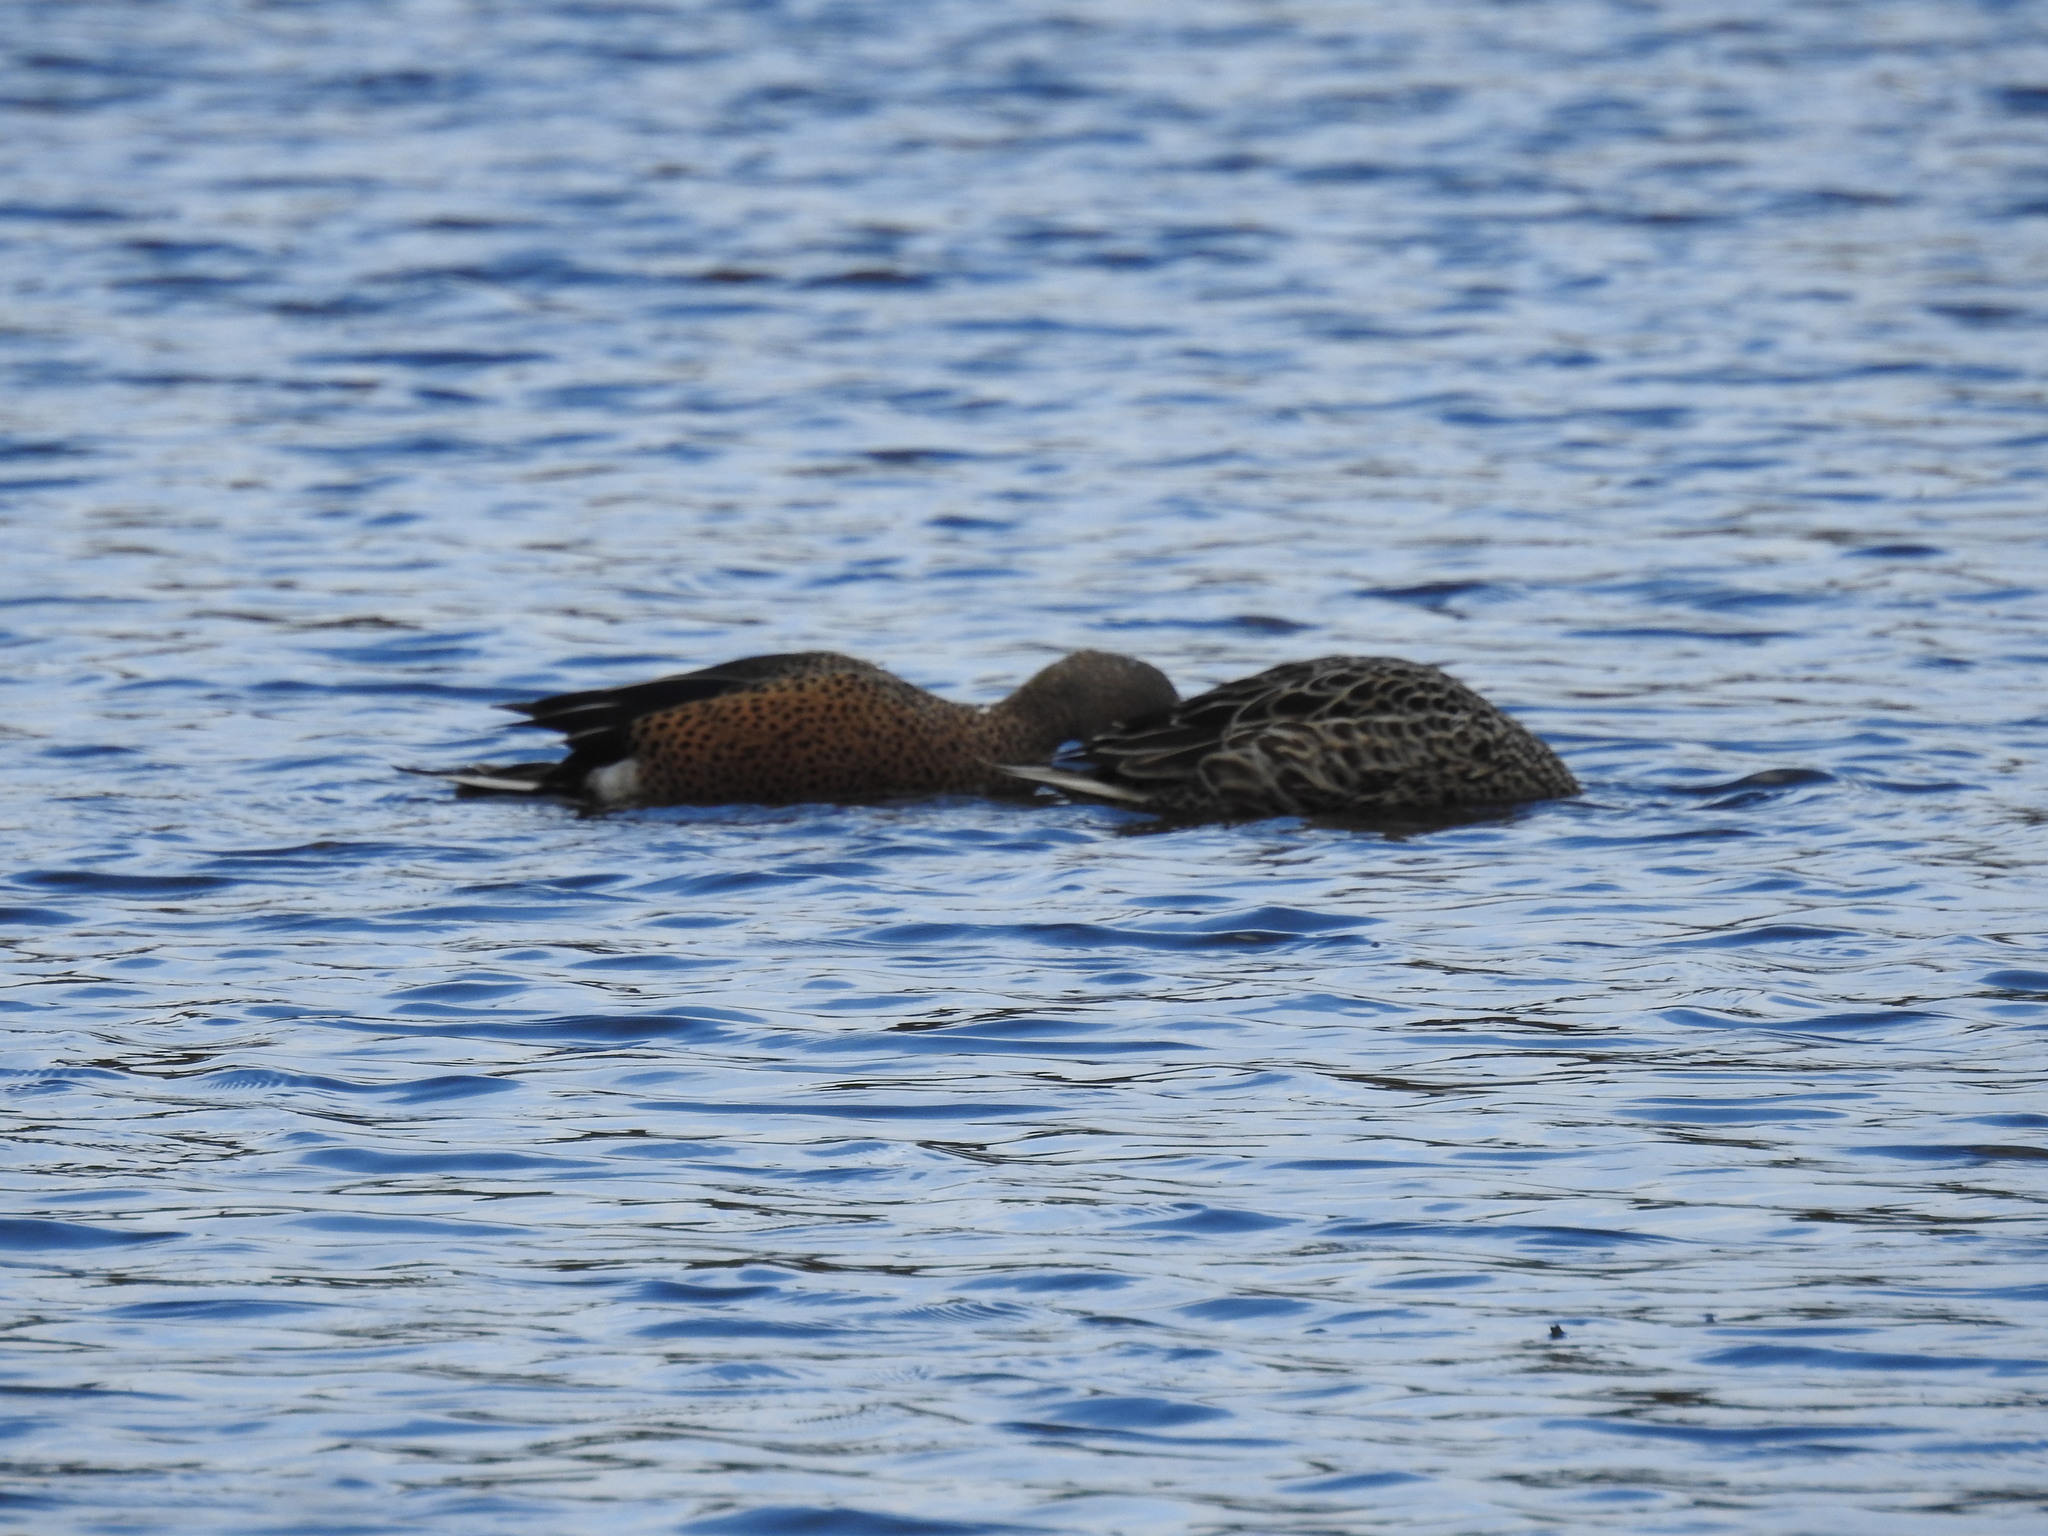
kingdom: Animalia
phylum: Chordata
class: Aves
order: Anseriformes
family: Anatidae
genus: Spatula
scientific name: Spatula platalea
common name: Red shoveler
